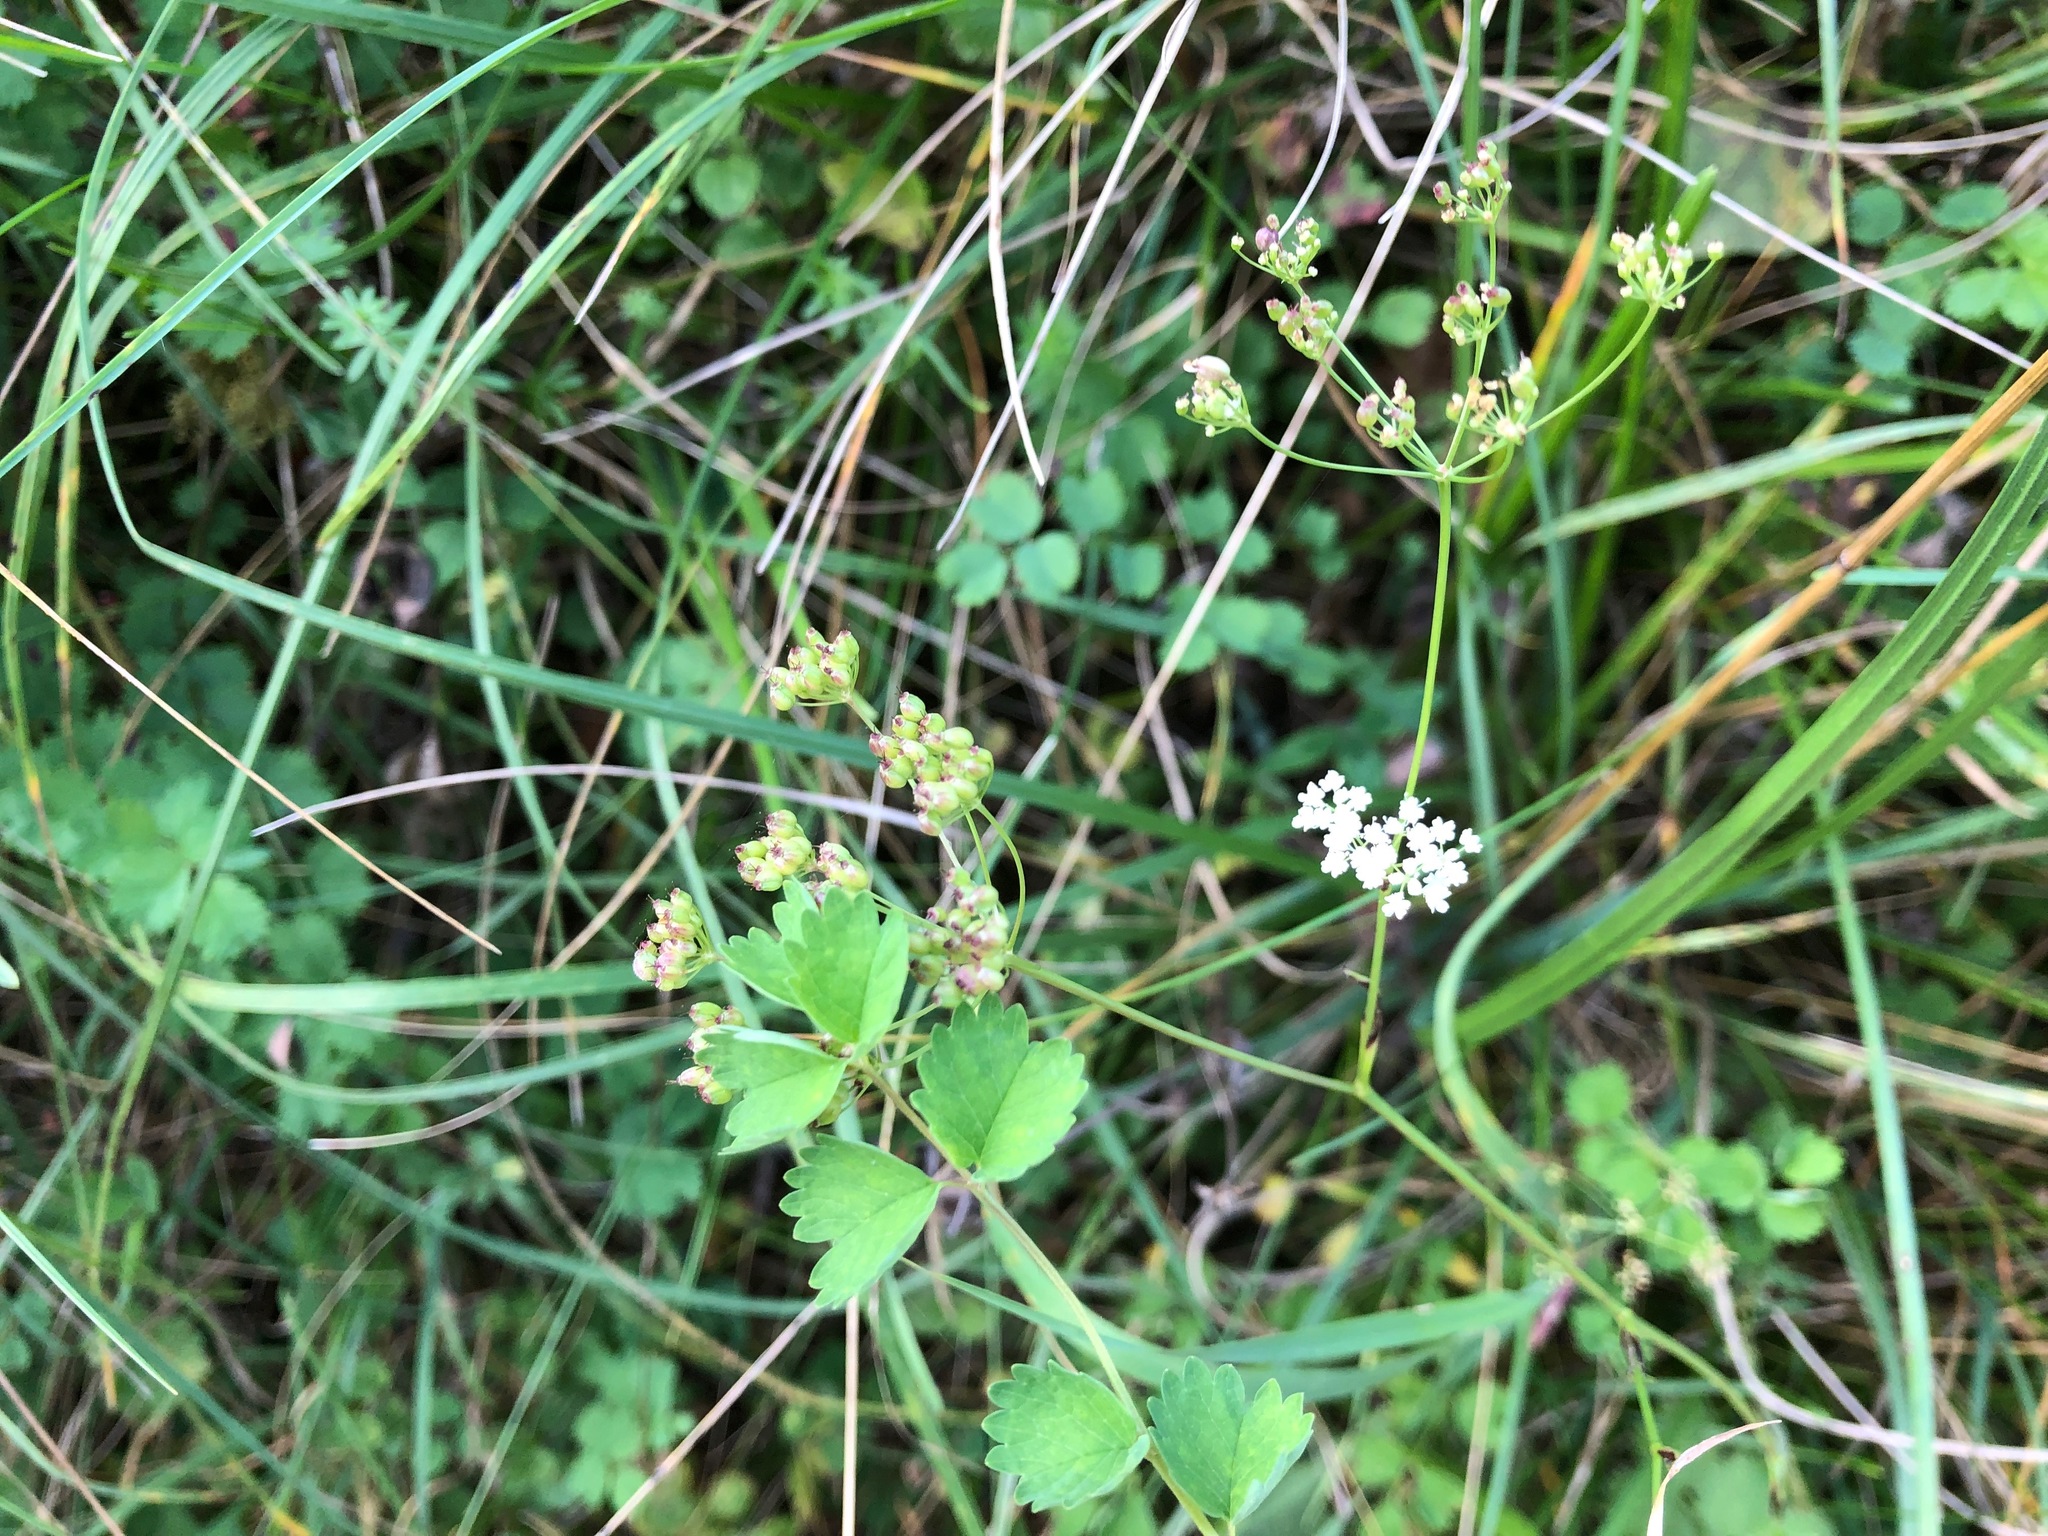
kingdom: Plantae
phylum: Tracheophyta
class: Magnoliopsida
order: Apiales
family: Apiaceae
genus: Pimpinella
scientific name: Pimpinella saxifraga
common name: Burnet-saxifrage
